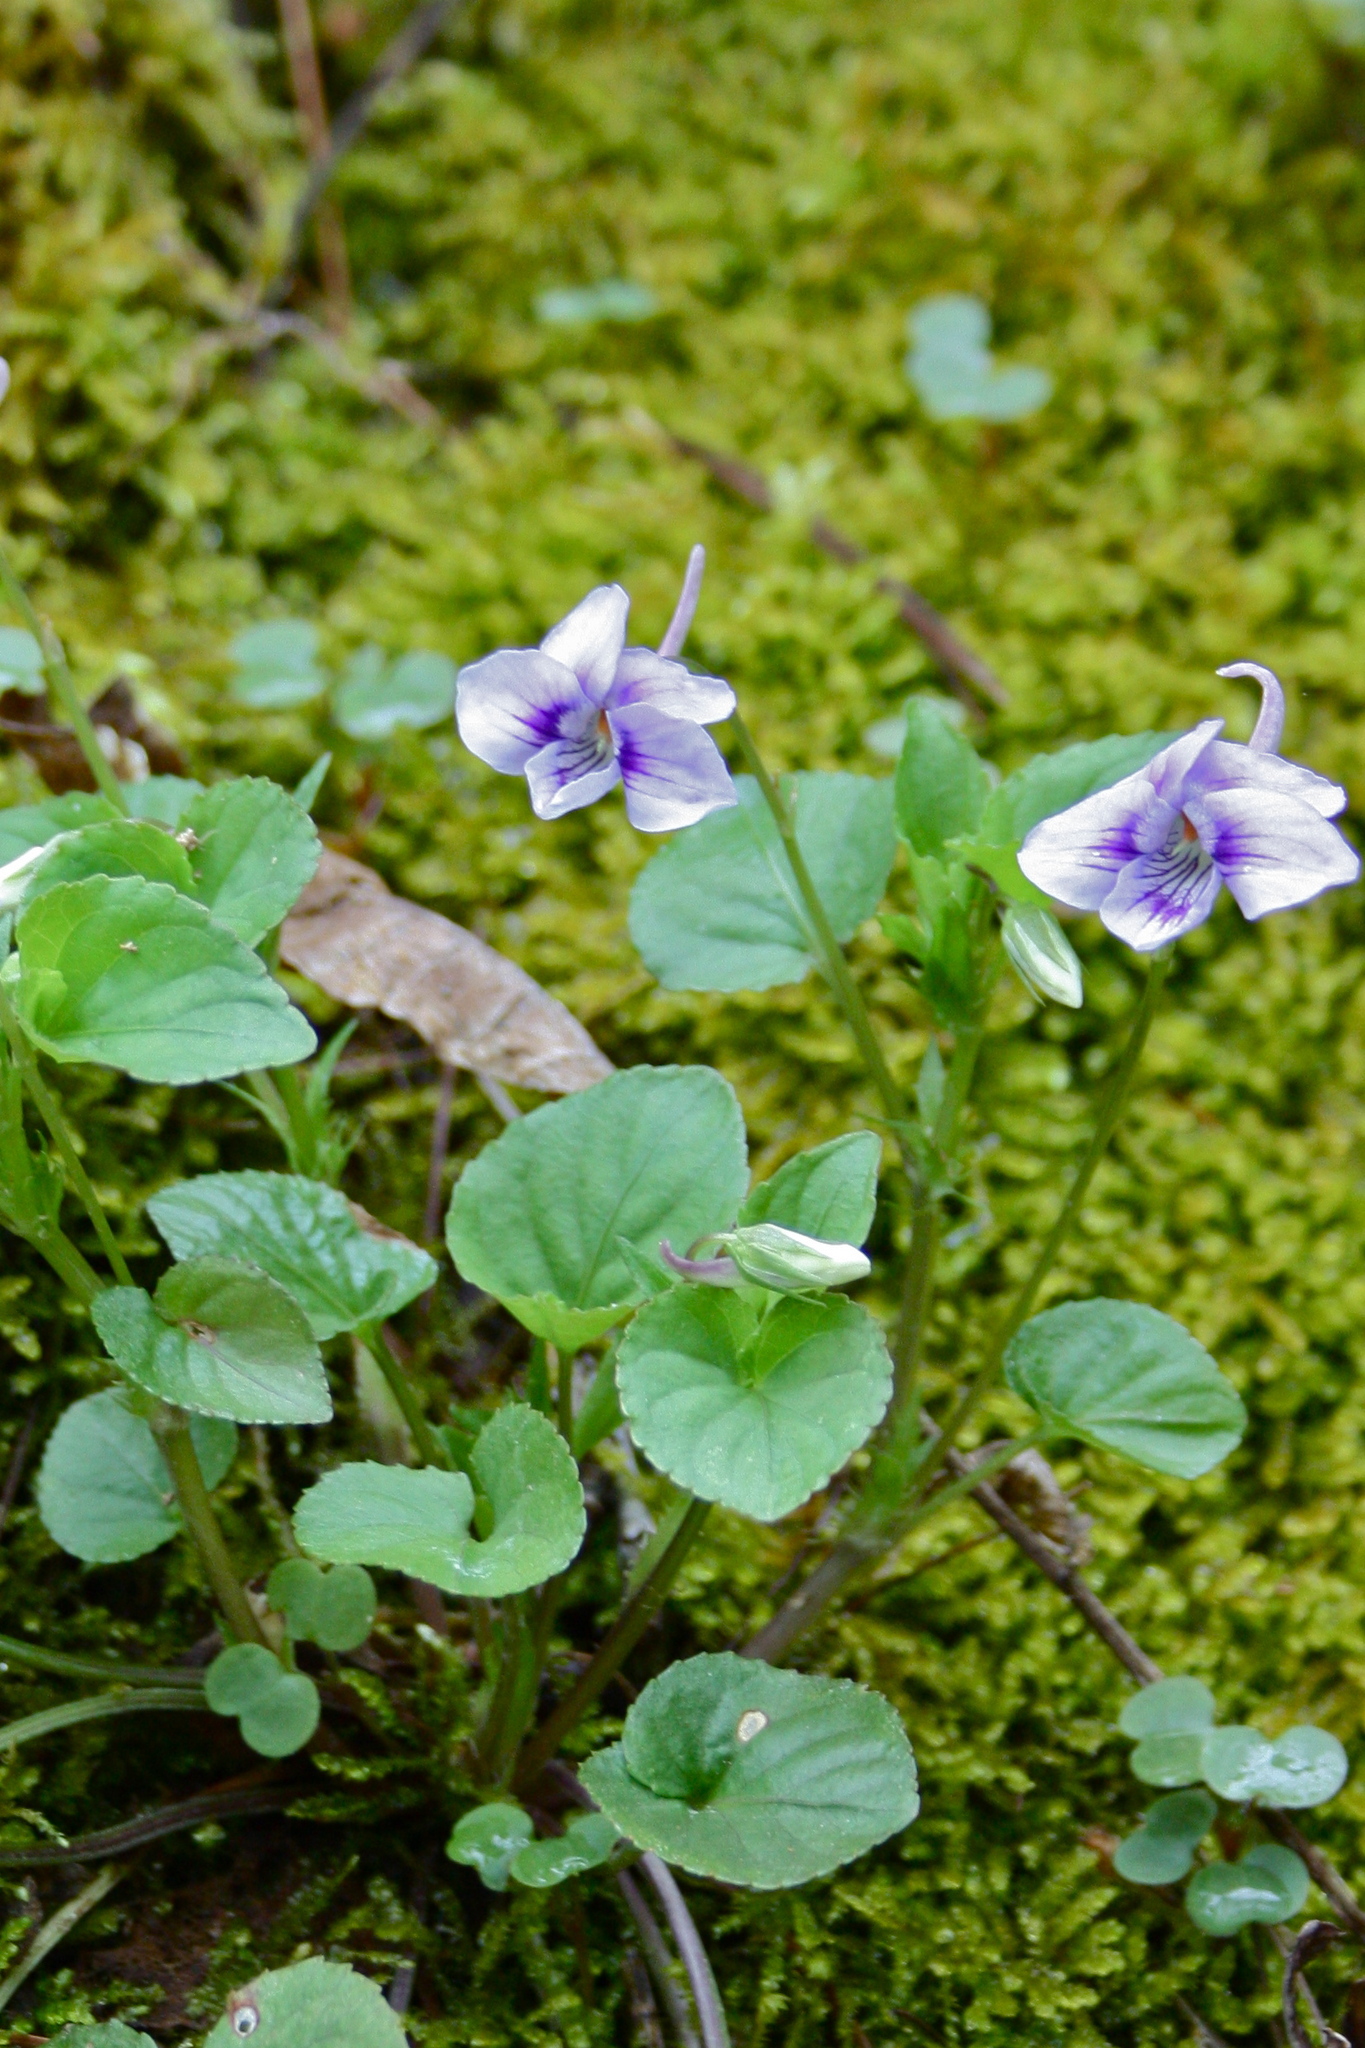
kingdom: Plantae
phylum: Tracheophyta
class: Magnoliopsida
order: Malpighiales
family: Violaceae
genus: Viola
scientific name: Viola rostrata
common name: Long-spur violet
